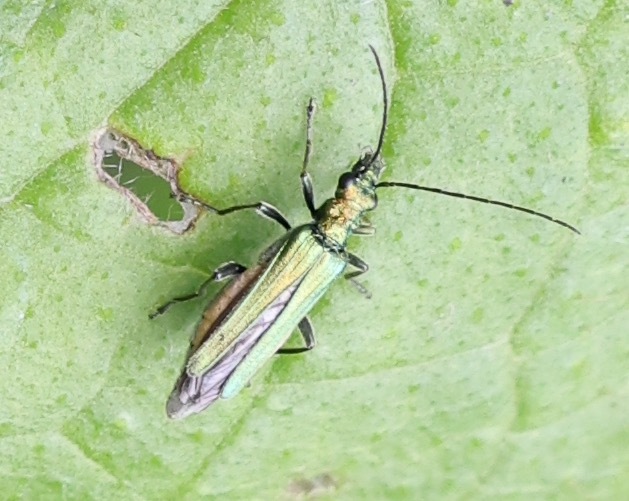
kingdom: Animalia
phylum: Arthropoda
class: Insecta
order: Coleoptera
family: Oedemeridae
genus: Oedemera
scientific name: Oedemera nobilis
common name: Swollen-thighed beetle
